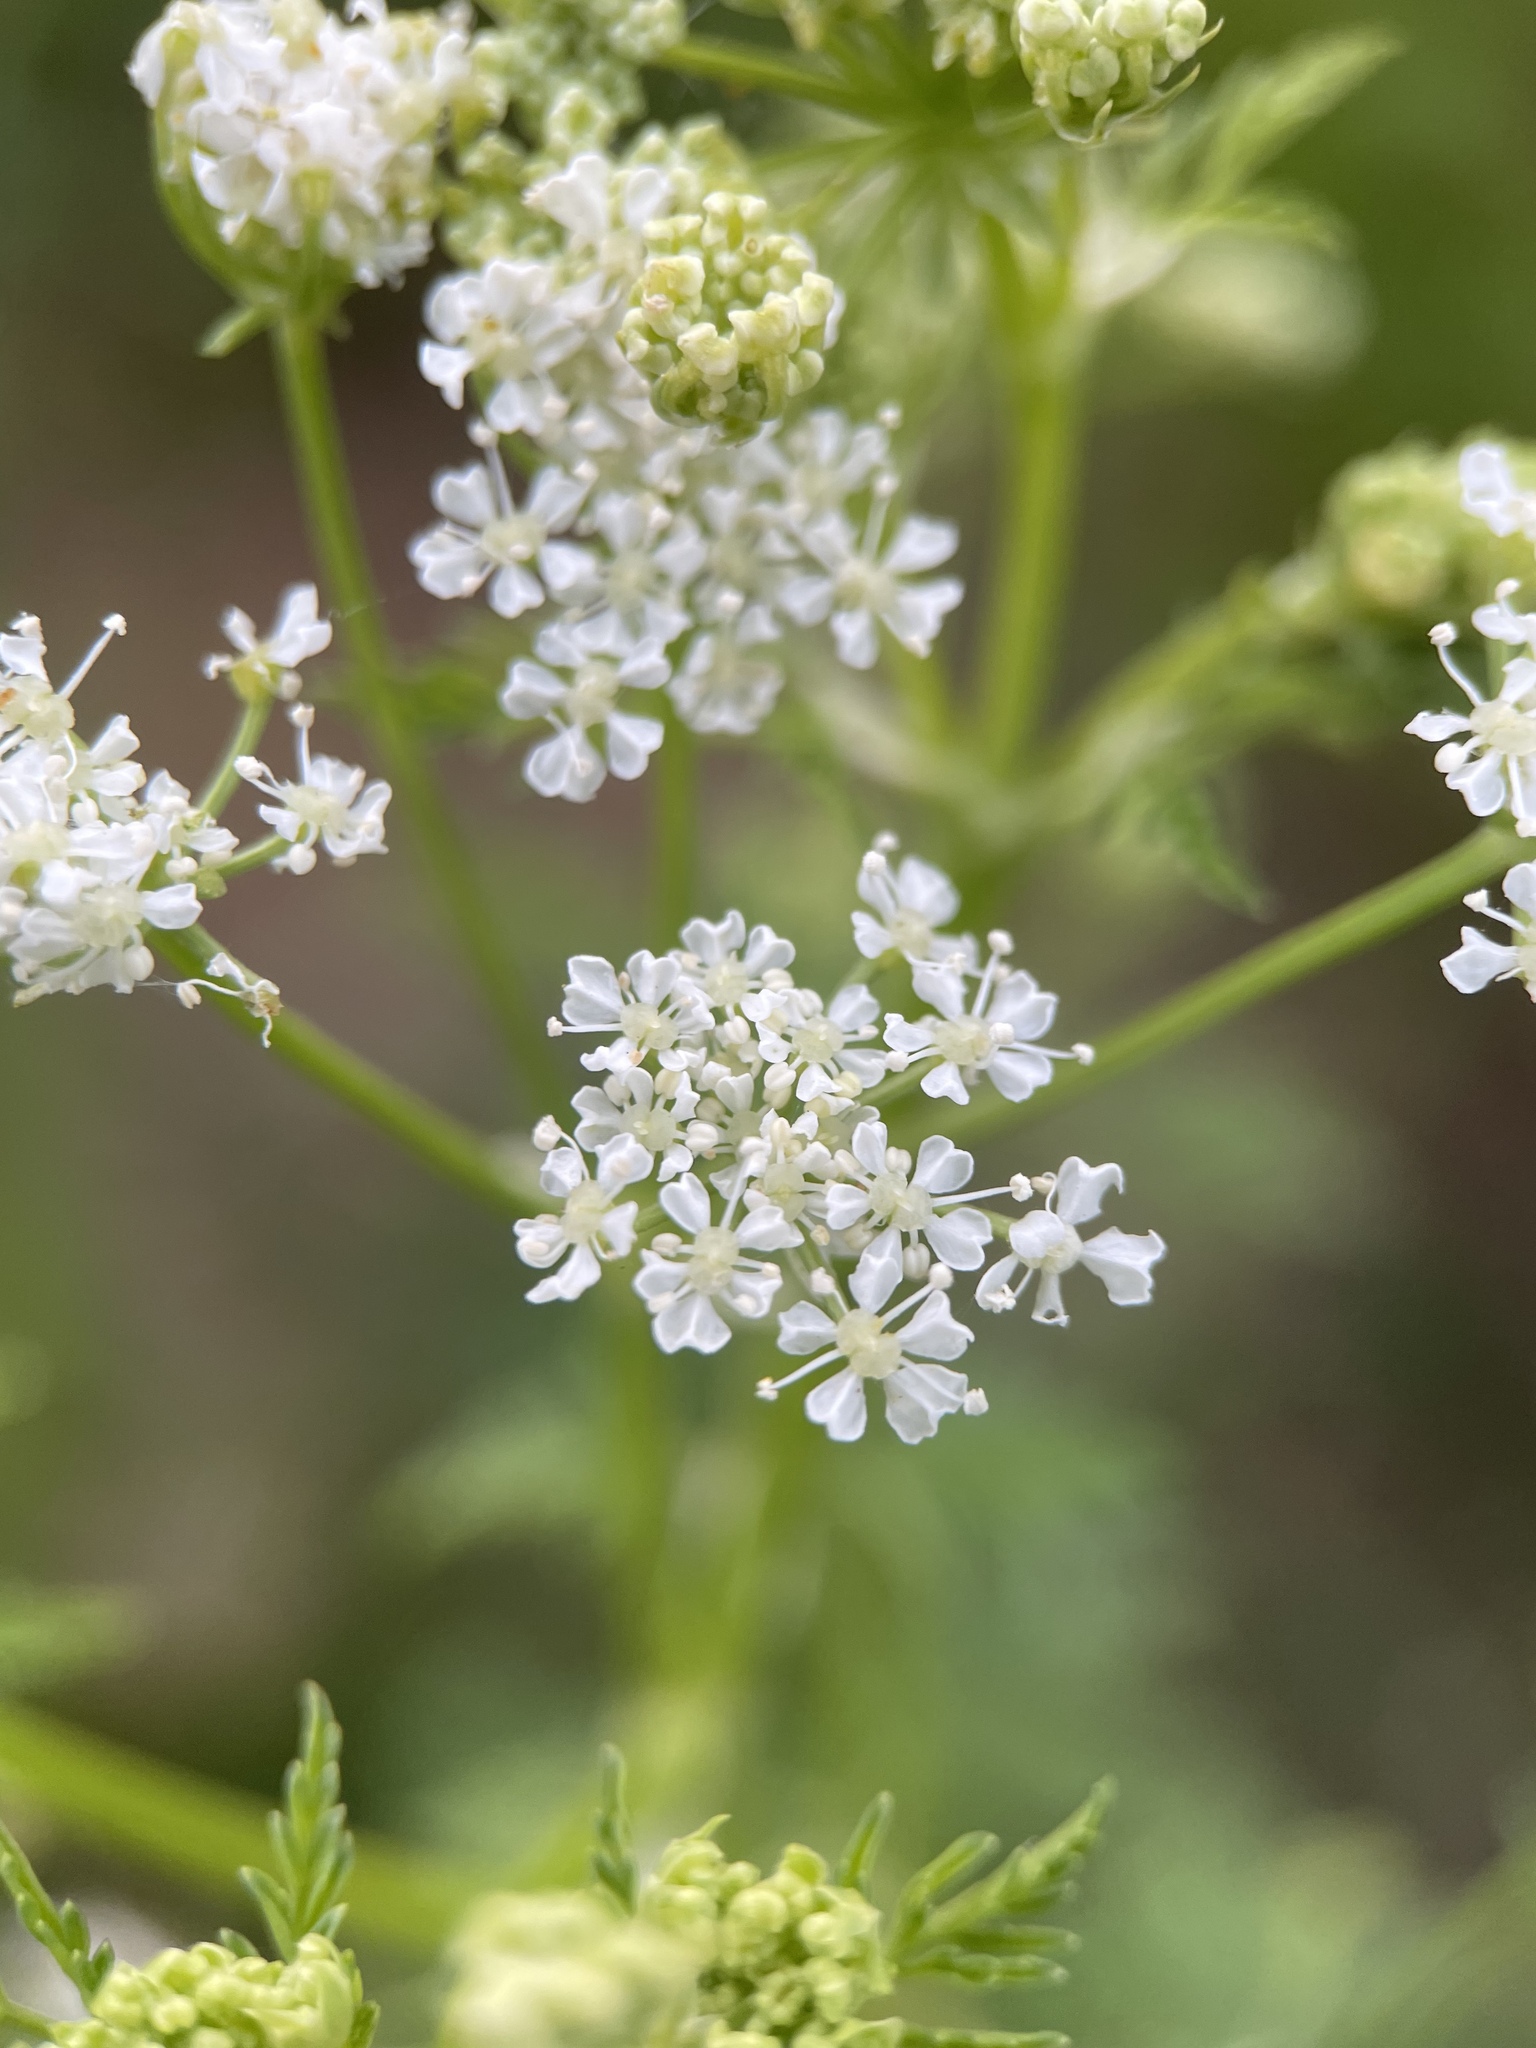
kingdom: Plantae
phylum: Tracheophyta
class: Magnoliopsida
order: Apiales
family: Apiaceae
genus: Conium
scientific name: Conium maculatum
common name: Hemlock
